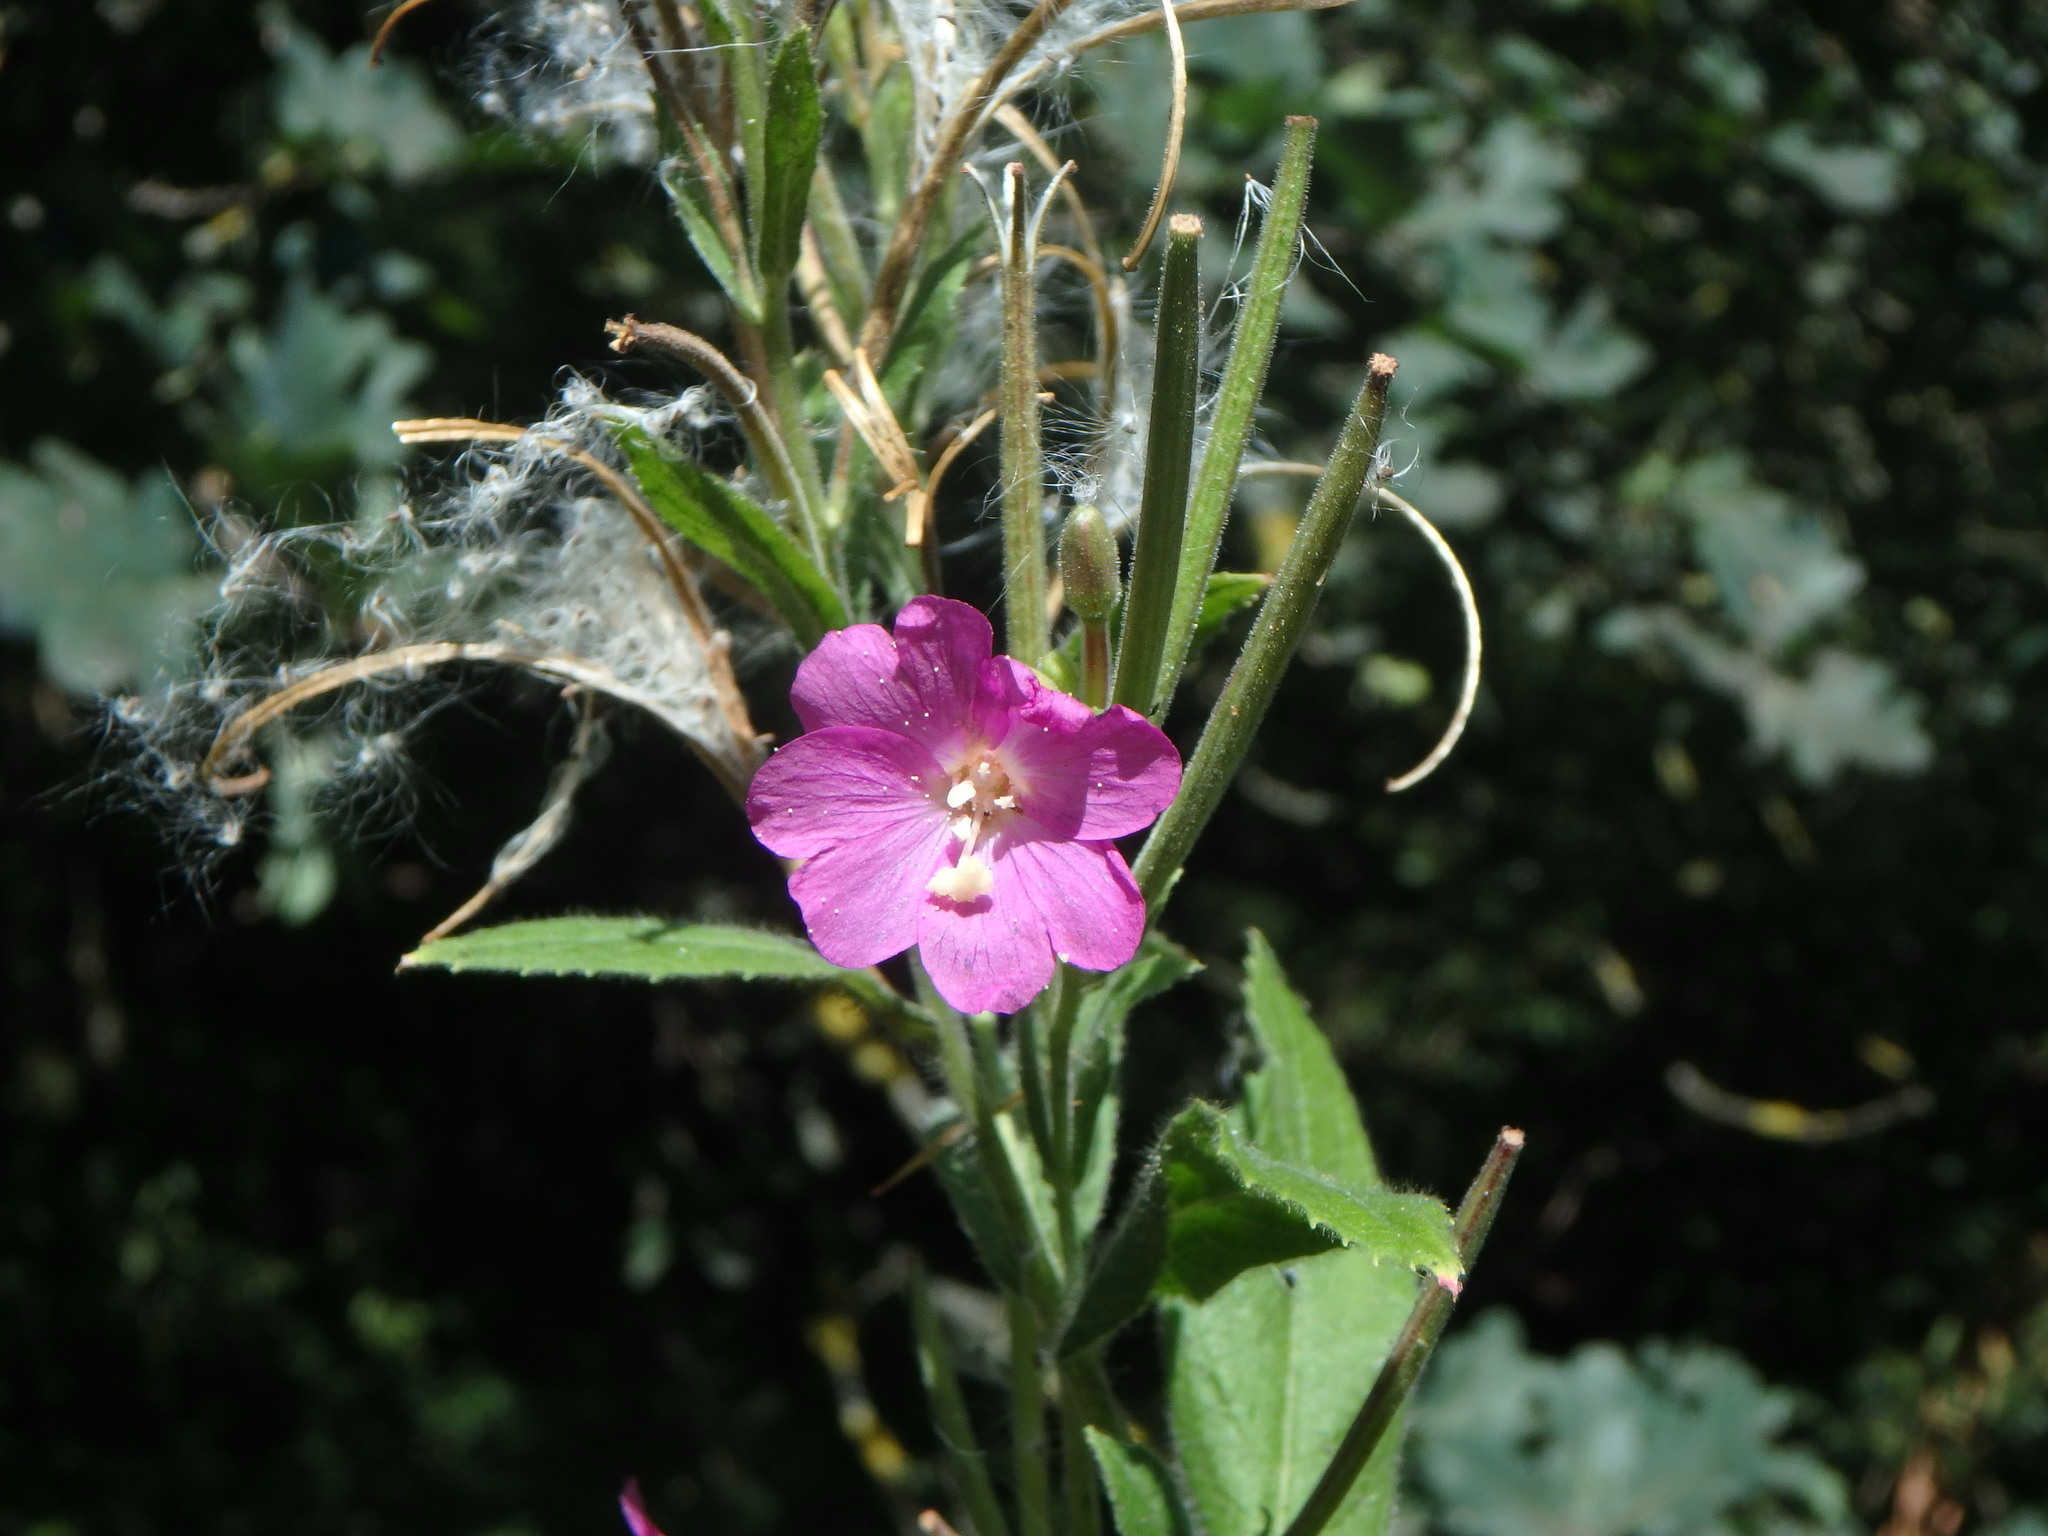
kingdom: Plantae
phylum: Tracheophyta
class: Magnoliopsida
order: Myrtales
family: Onagraceae
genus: Epilobium
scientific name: Epilobium hirsutum
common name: Great willowherb
